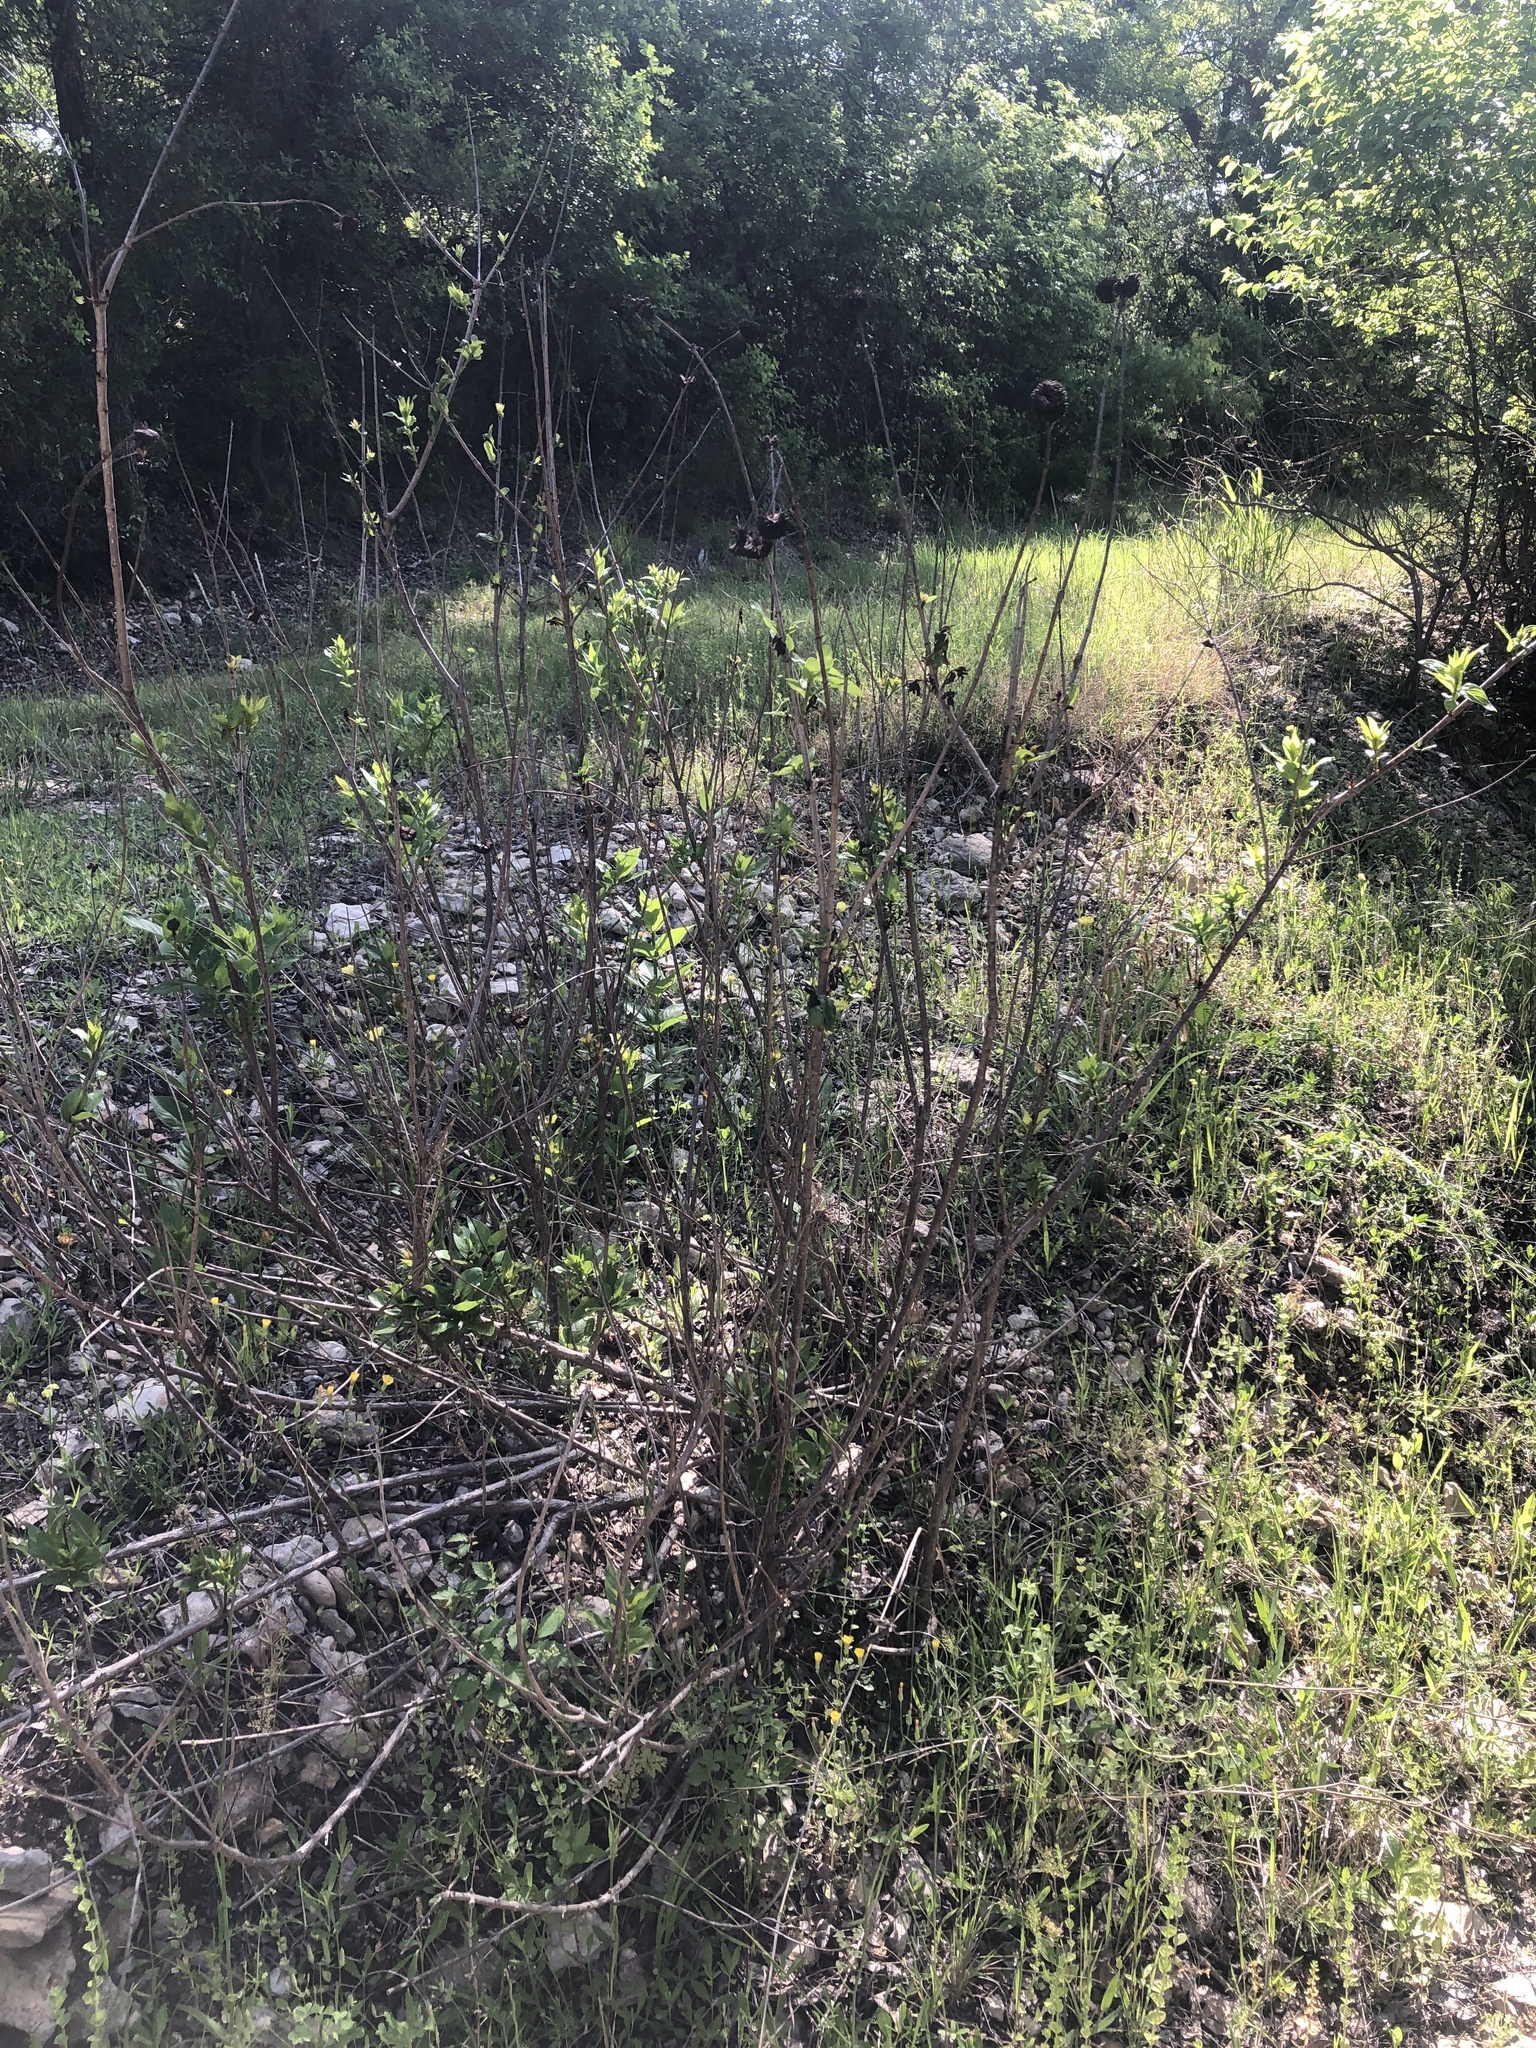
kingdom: Plantae
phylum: Tracheophyta
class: Magnoliopsida
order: Gentianales
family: Rubiaceae
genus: Cephalanthus
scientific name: Cephalanthus occidentalis
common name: Button-willow
